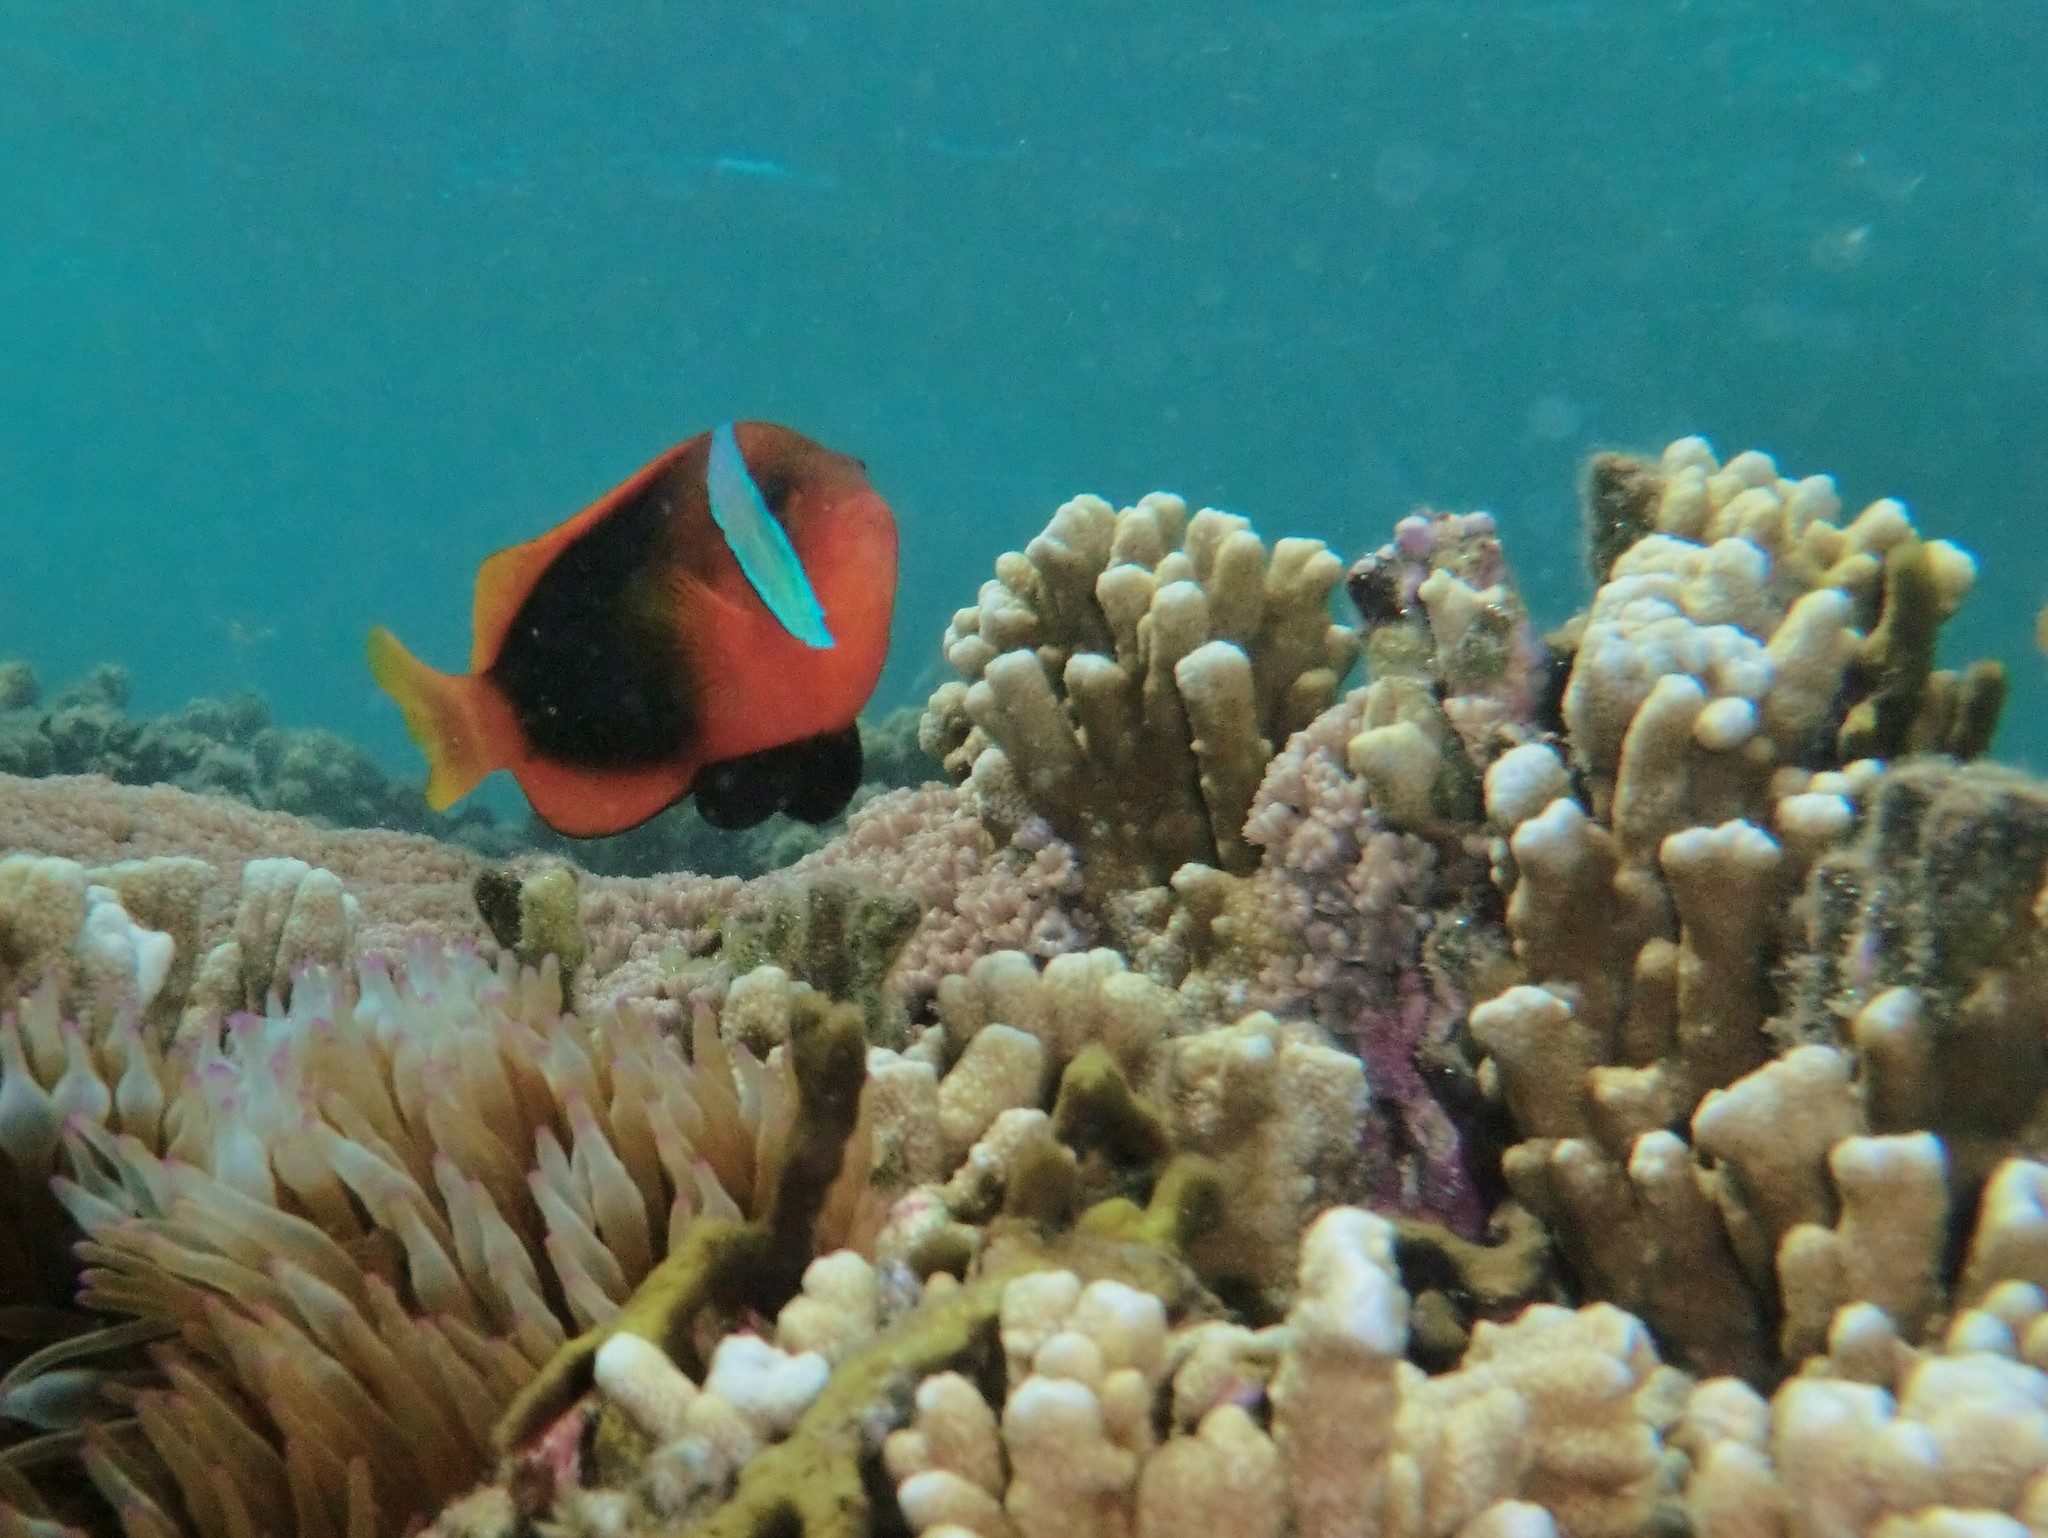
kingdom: Animalia
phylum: Chordata
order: Perciformes
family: Pomacentridae
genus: Amphiprion
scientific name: Amphiprion melanopus
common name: Black anemonefish
